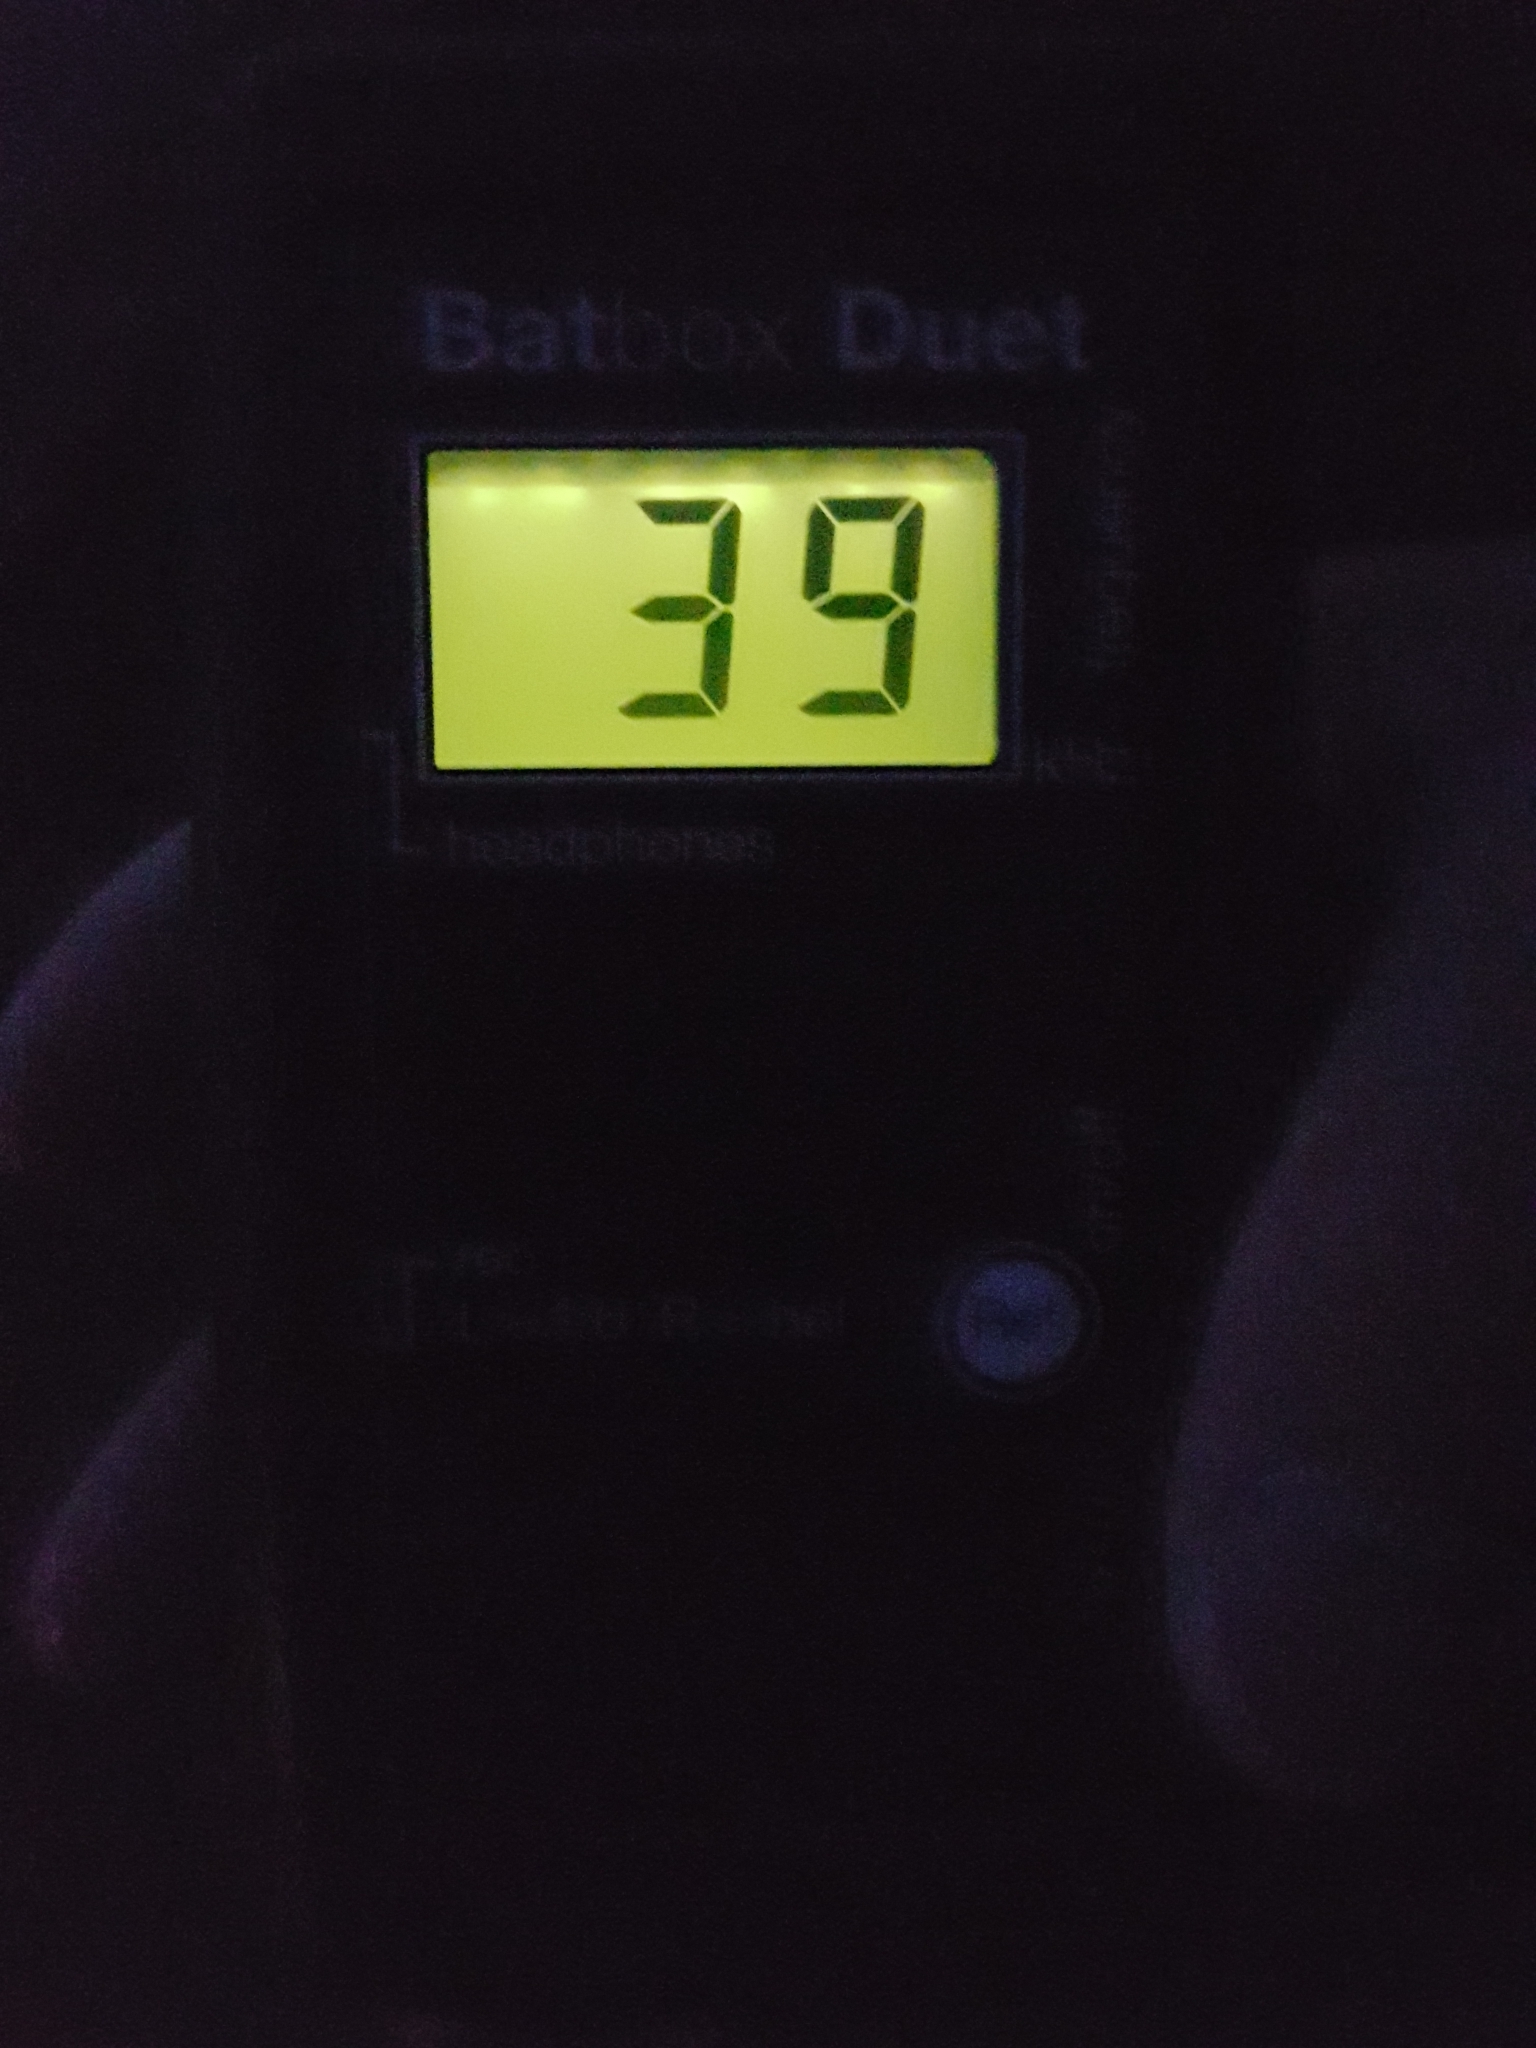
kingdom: Animalia
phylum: Chordata
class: Mammalia
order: Chiroptera
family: Vespertilionidae
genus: Myotis
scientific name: Myotis daubentonii
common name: Daubenton's myotis
